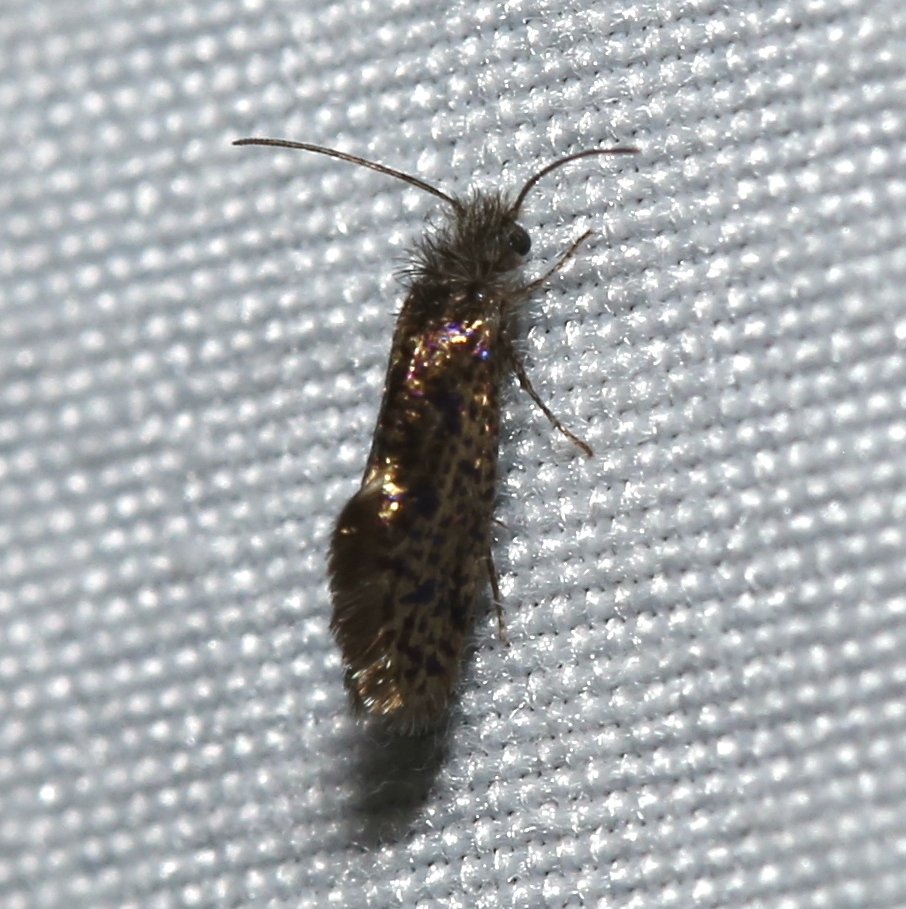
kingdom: Animalia
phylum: Arthropoda
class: Insecta
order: Lepidoptera
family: Eriocraniidae
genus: Dyseriocrania
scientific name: Dyseriocrania griseocapitella
